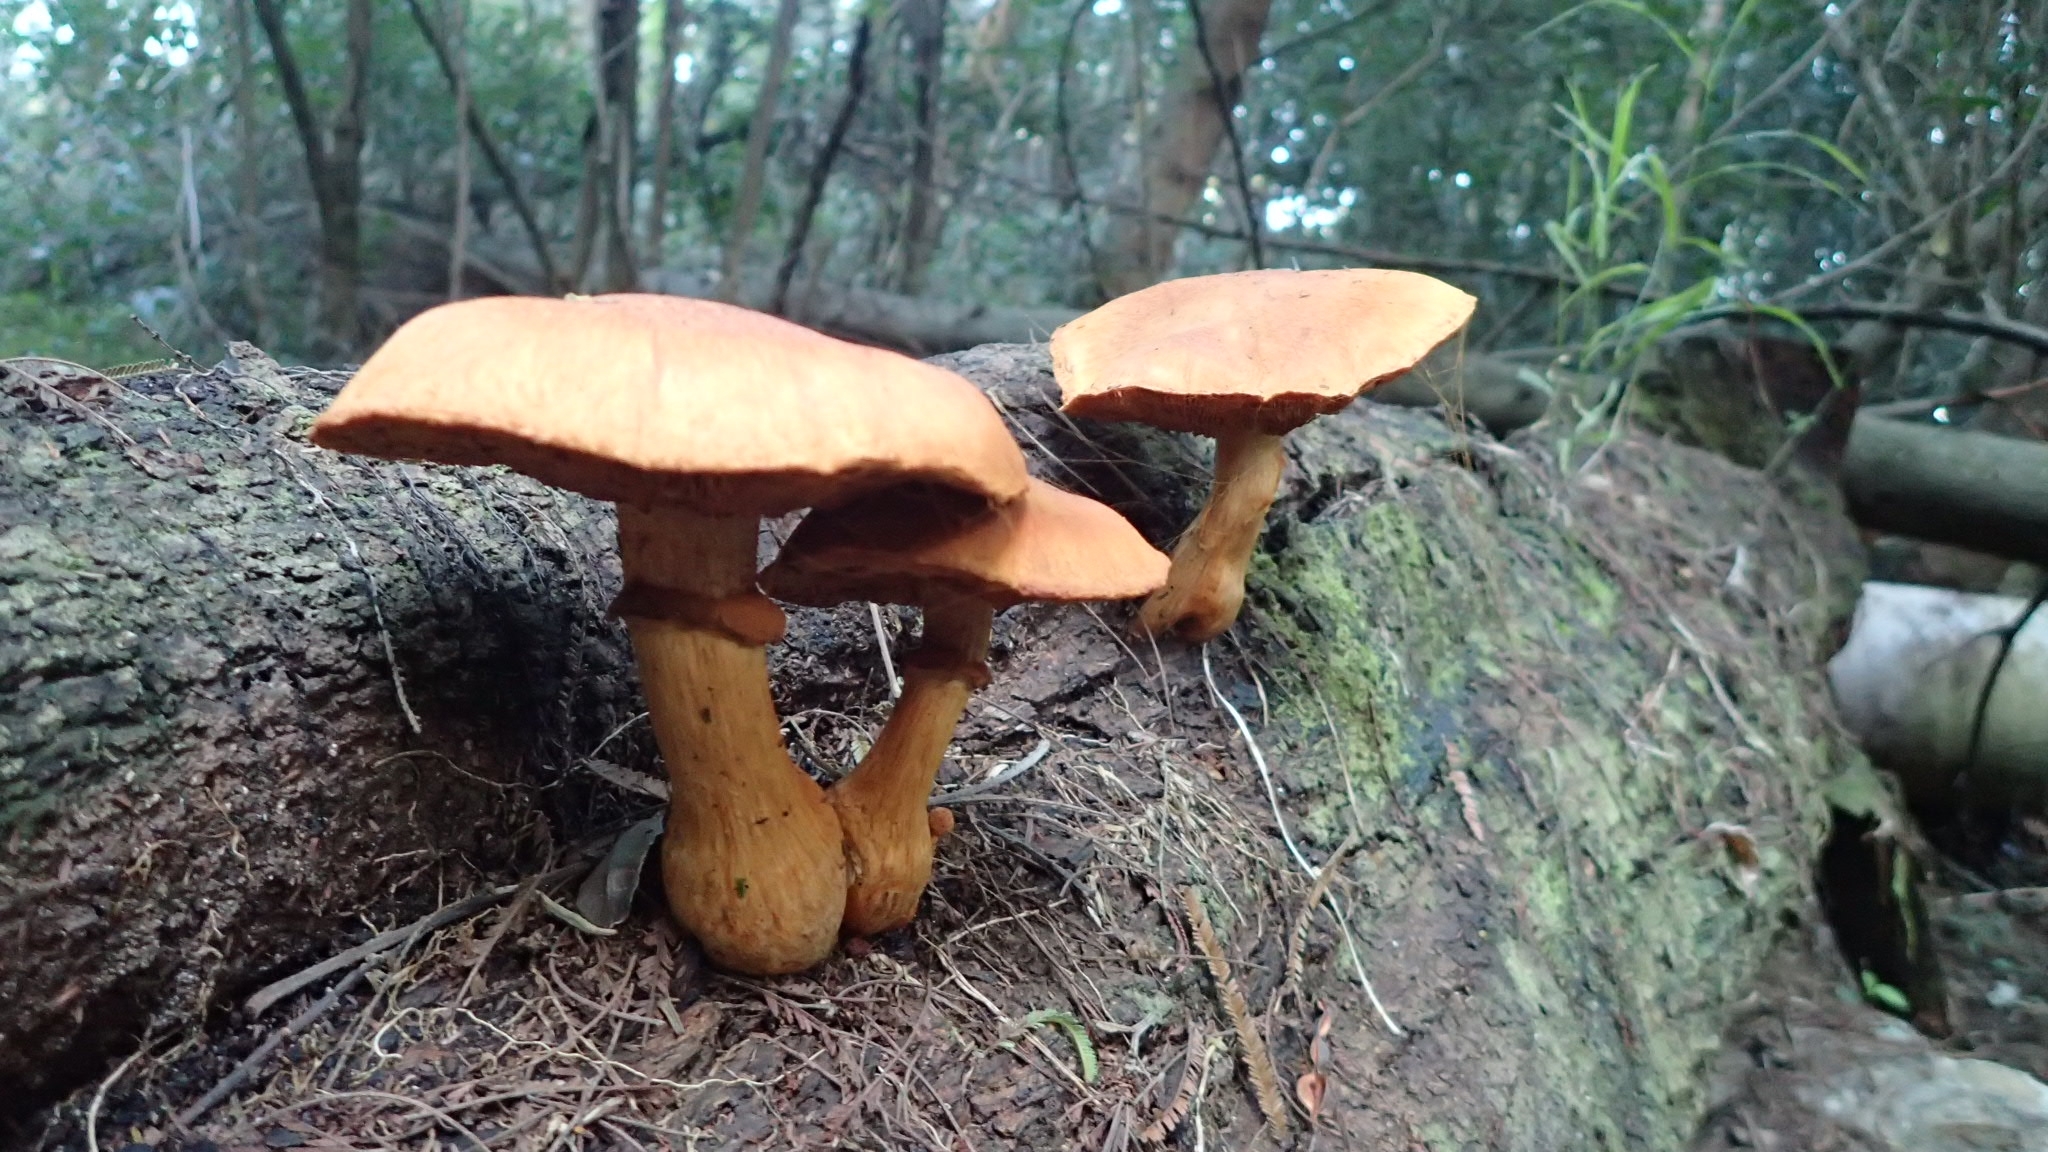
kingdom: Fungi
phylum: Basidiomycota
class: Agaricomycetes
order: Agaricales
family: Hymenogastraceae
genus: Gymnopilus
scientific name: Gymnopilus junonius
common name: Spectacular rustgill
